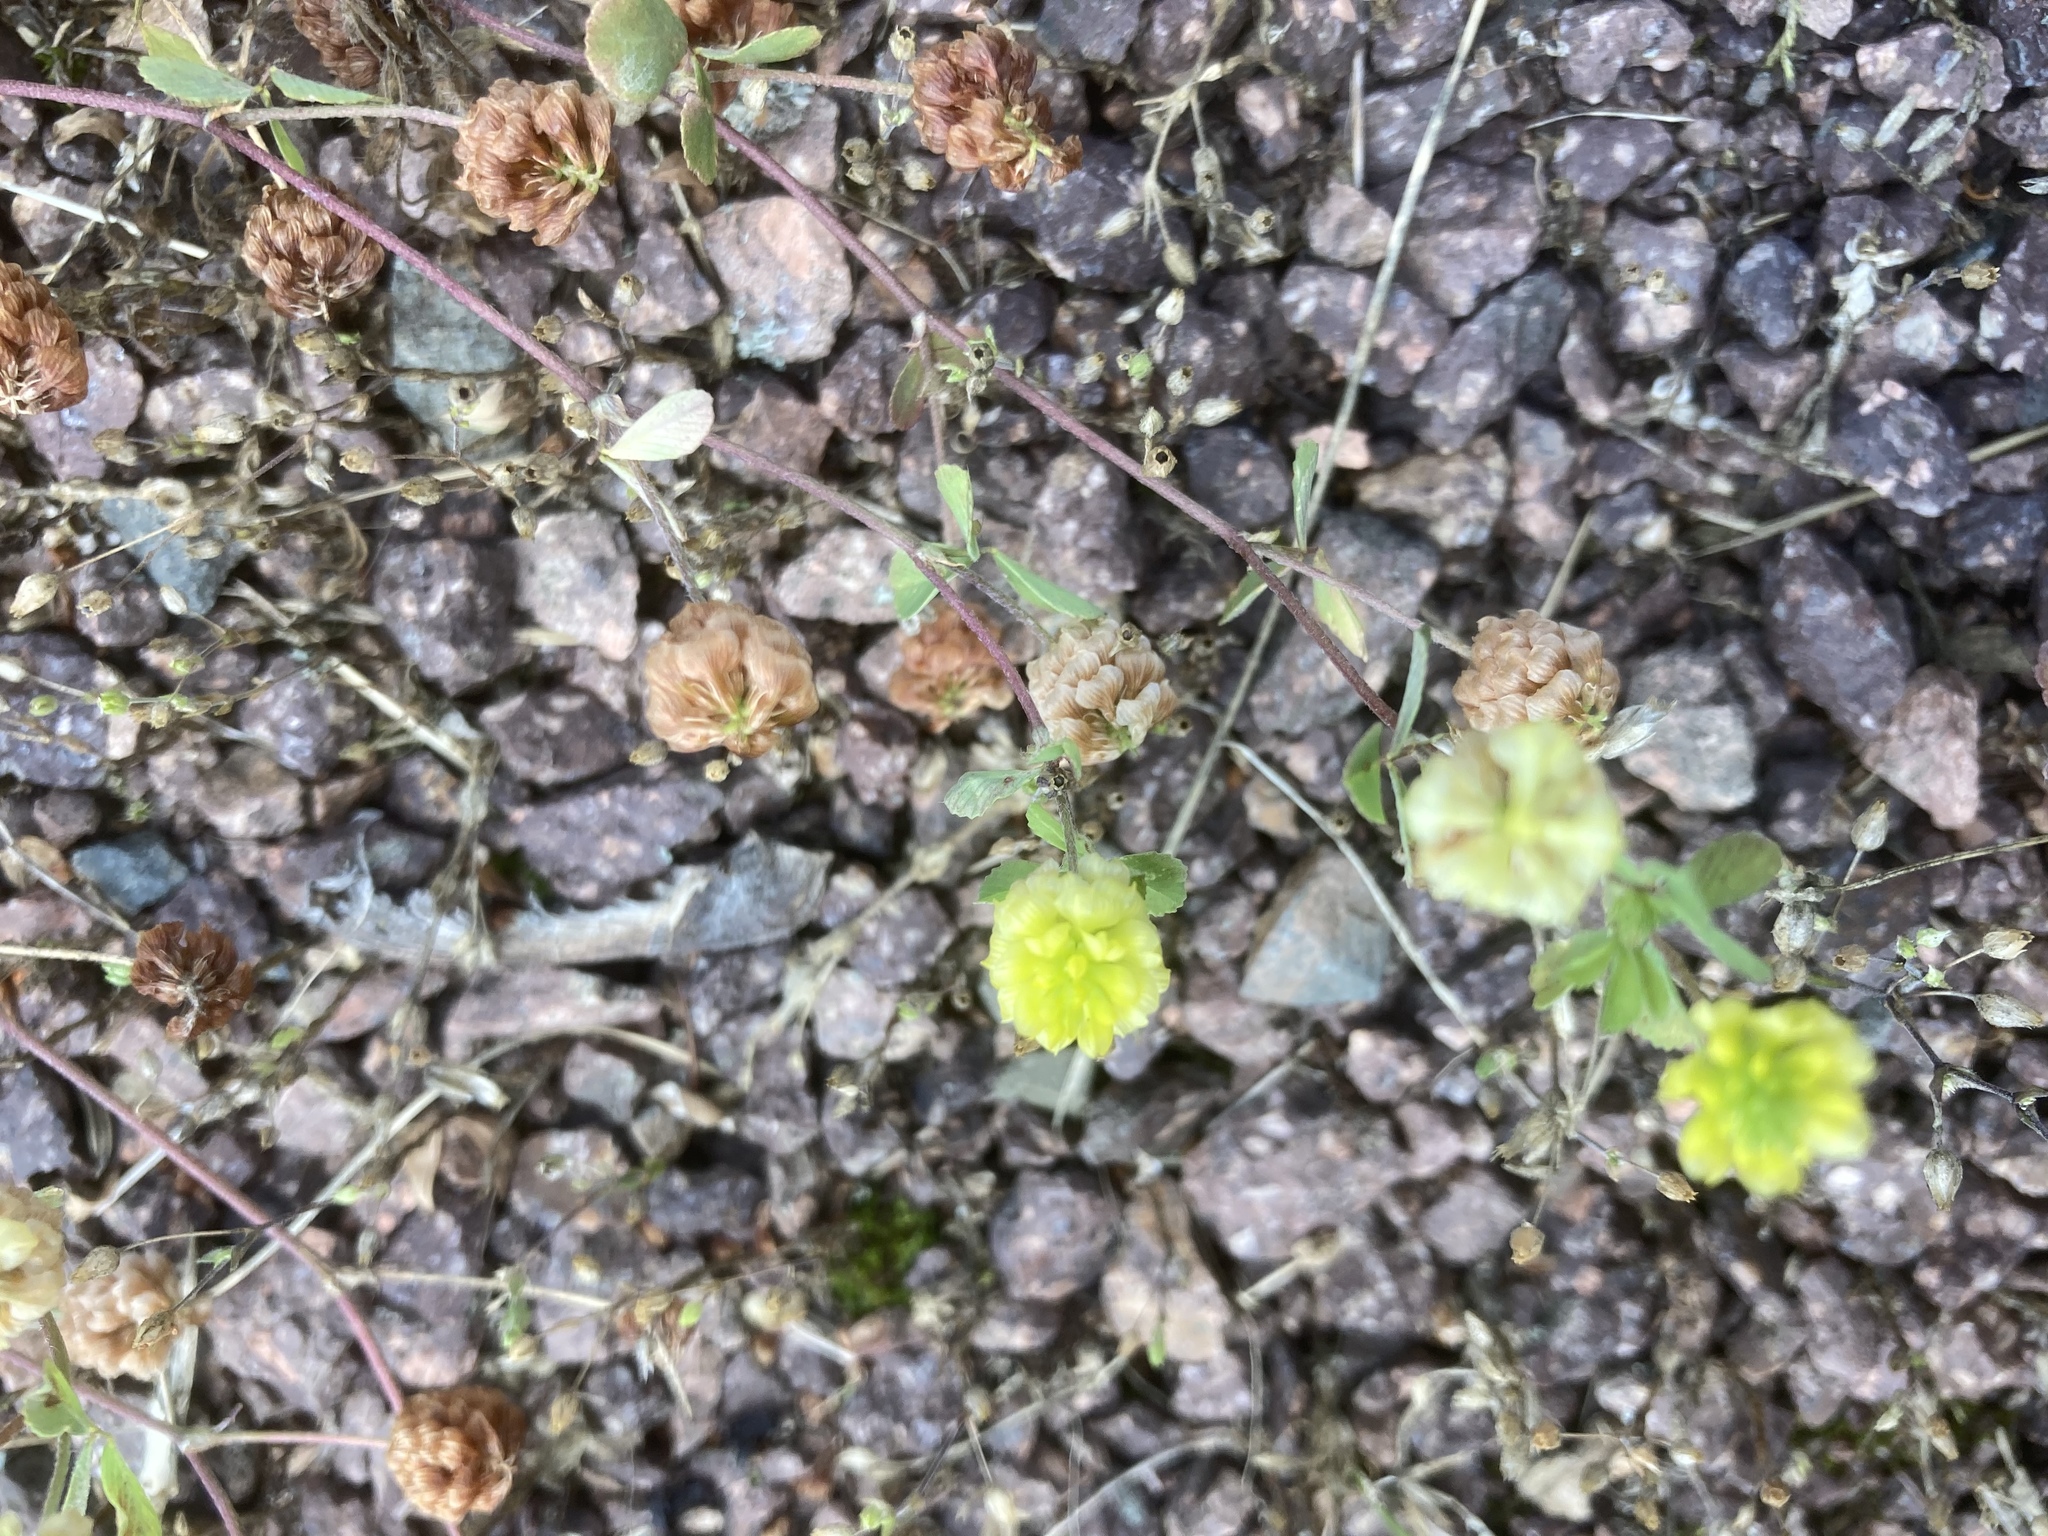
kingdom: Plantae
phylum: Tracheophyta
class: Magnoliopsida
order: Fabales
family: Fabaceae
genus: Trifolium
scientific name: Trifolium campestre
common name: Field clover
